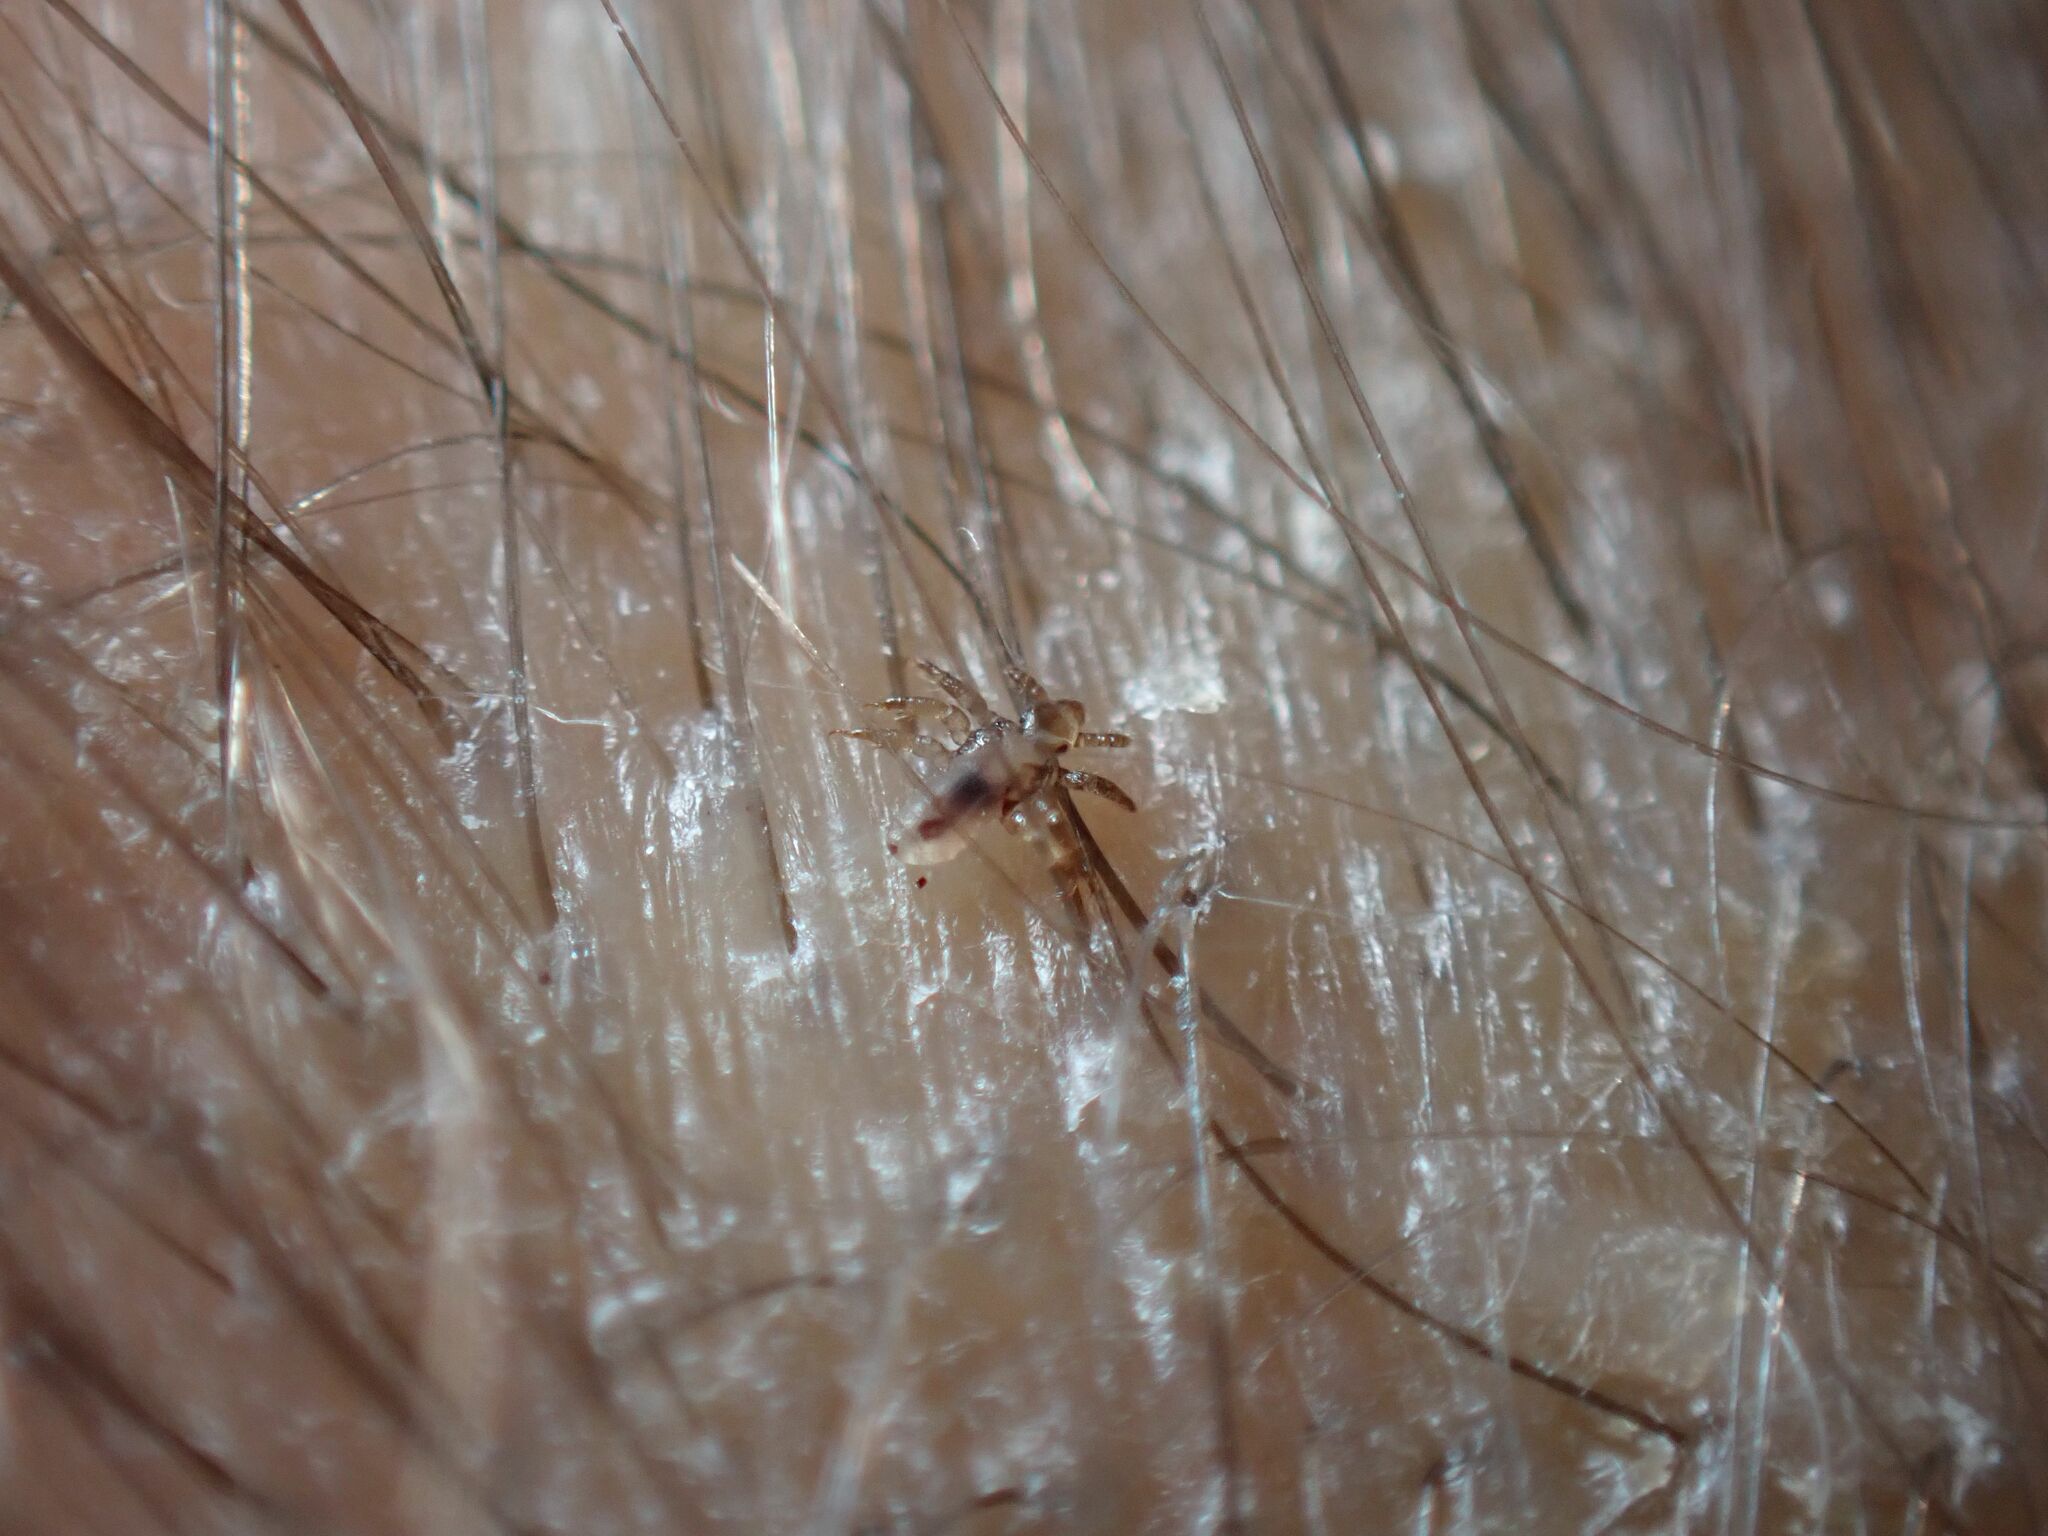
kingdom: Animalia
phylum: Arthropoda
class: Insecta
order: Psocodea
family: Pediculidae
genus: Pediculus
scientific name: Pediculus humanus
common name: Body louse
